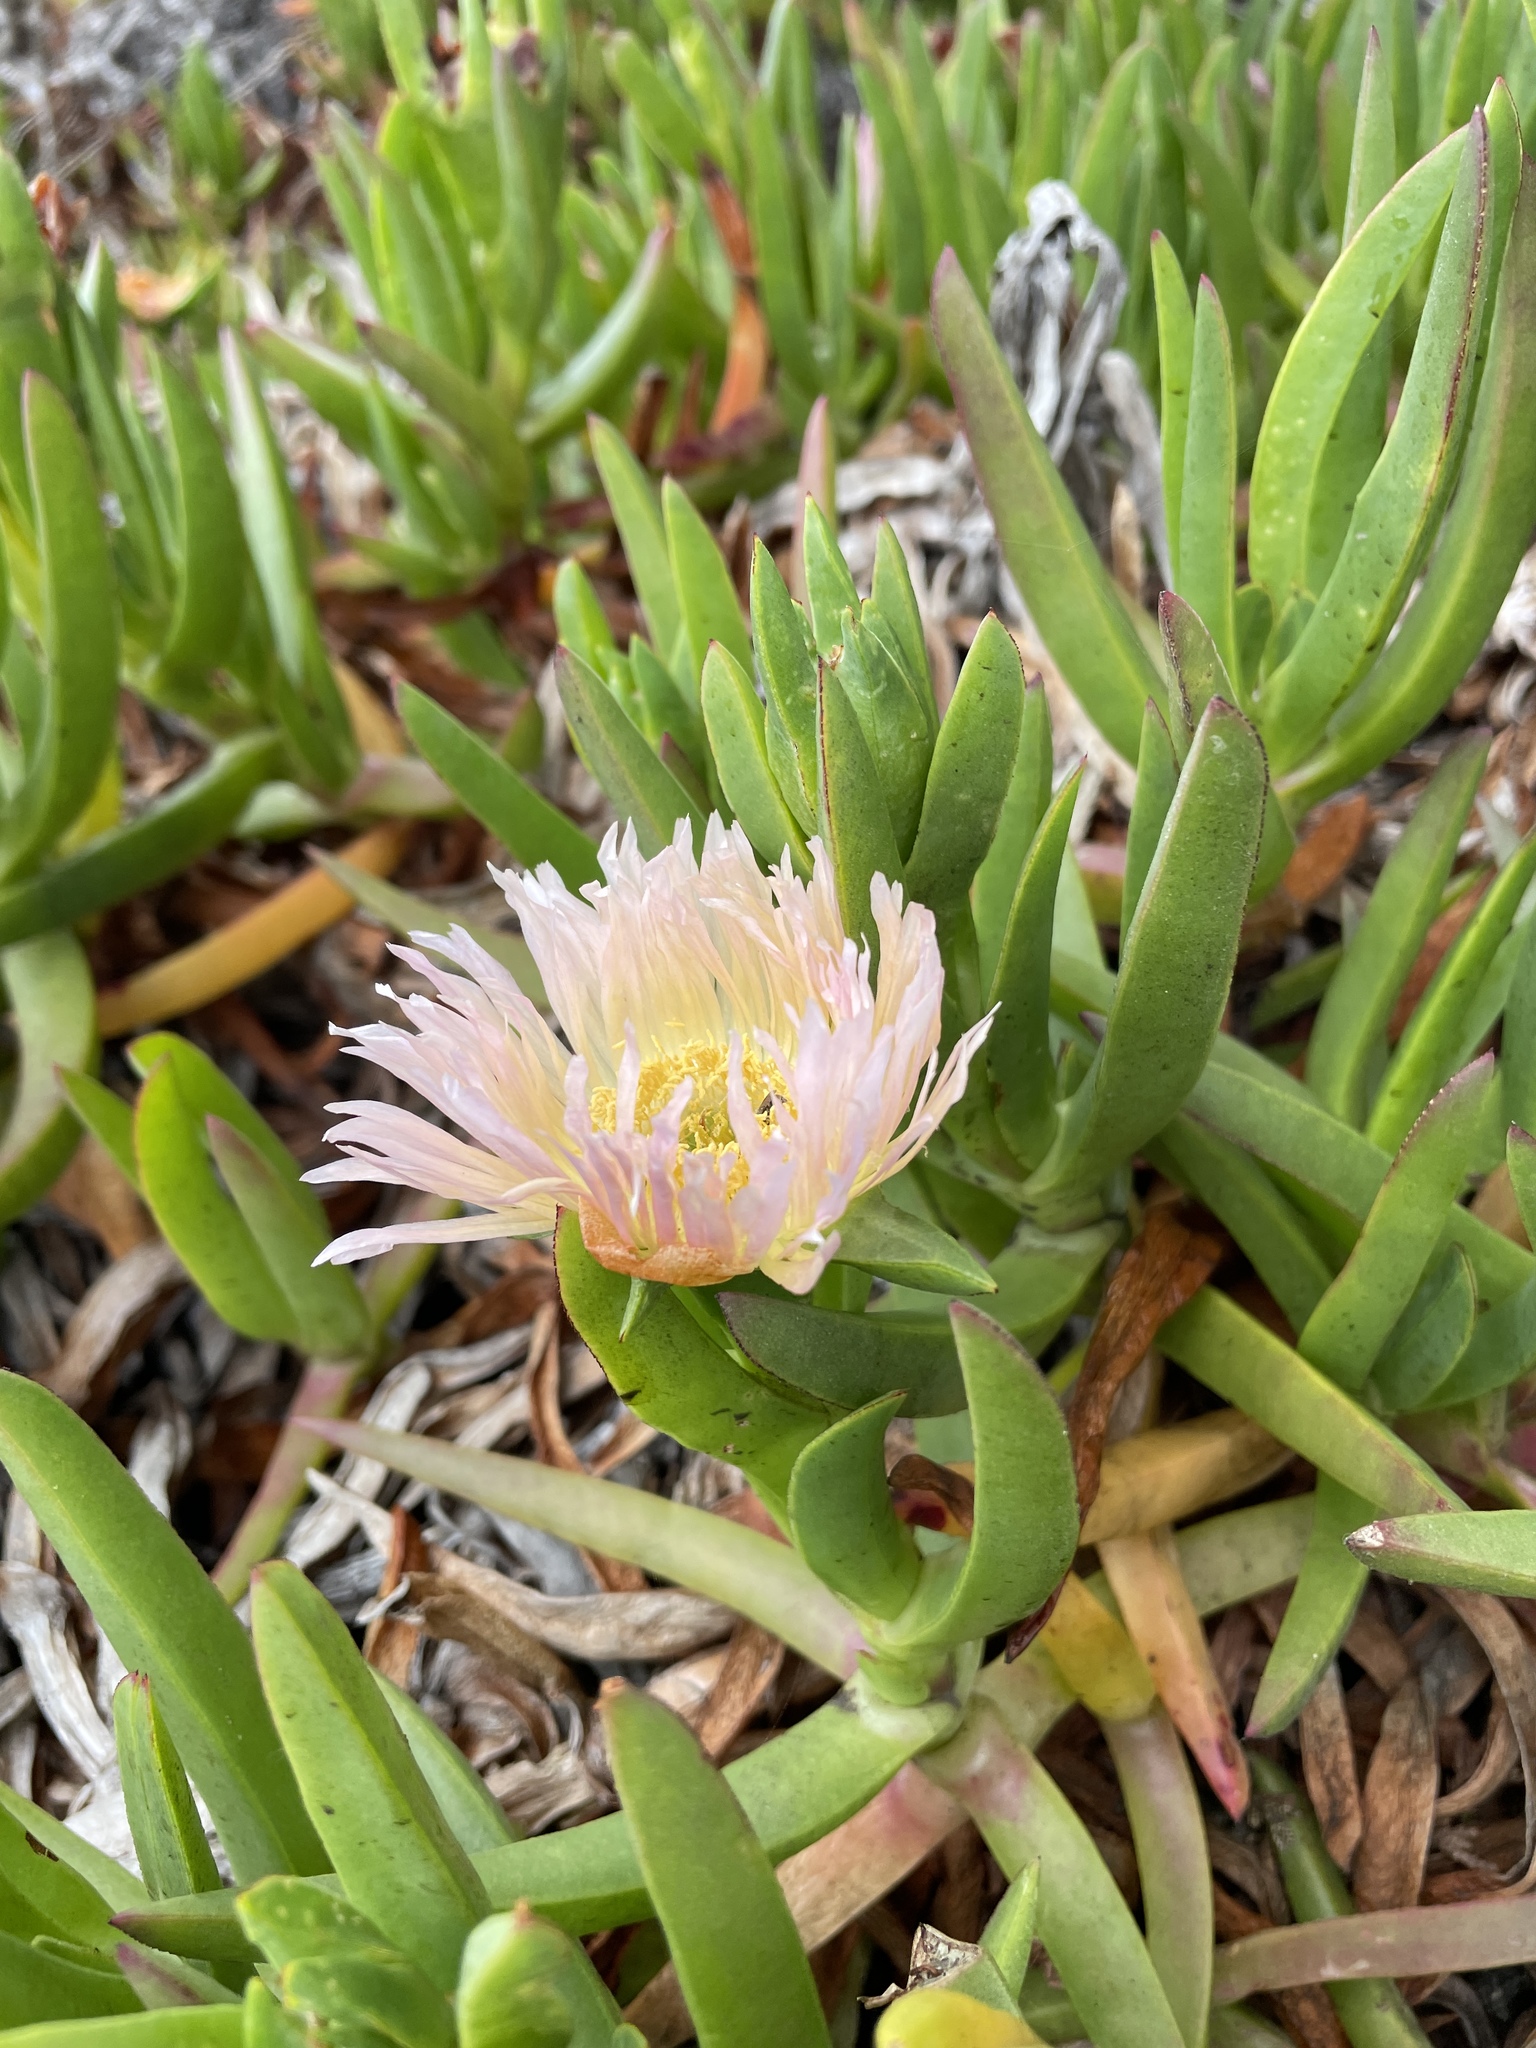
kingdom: Plantae
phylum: Tracheophyta
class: Magnoliopsida
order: Caryophyllales
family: Aizoaceae
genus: Carpobrotus
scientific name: Carpobrotus edulis
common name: Hottentot-fig
